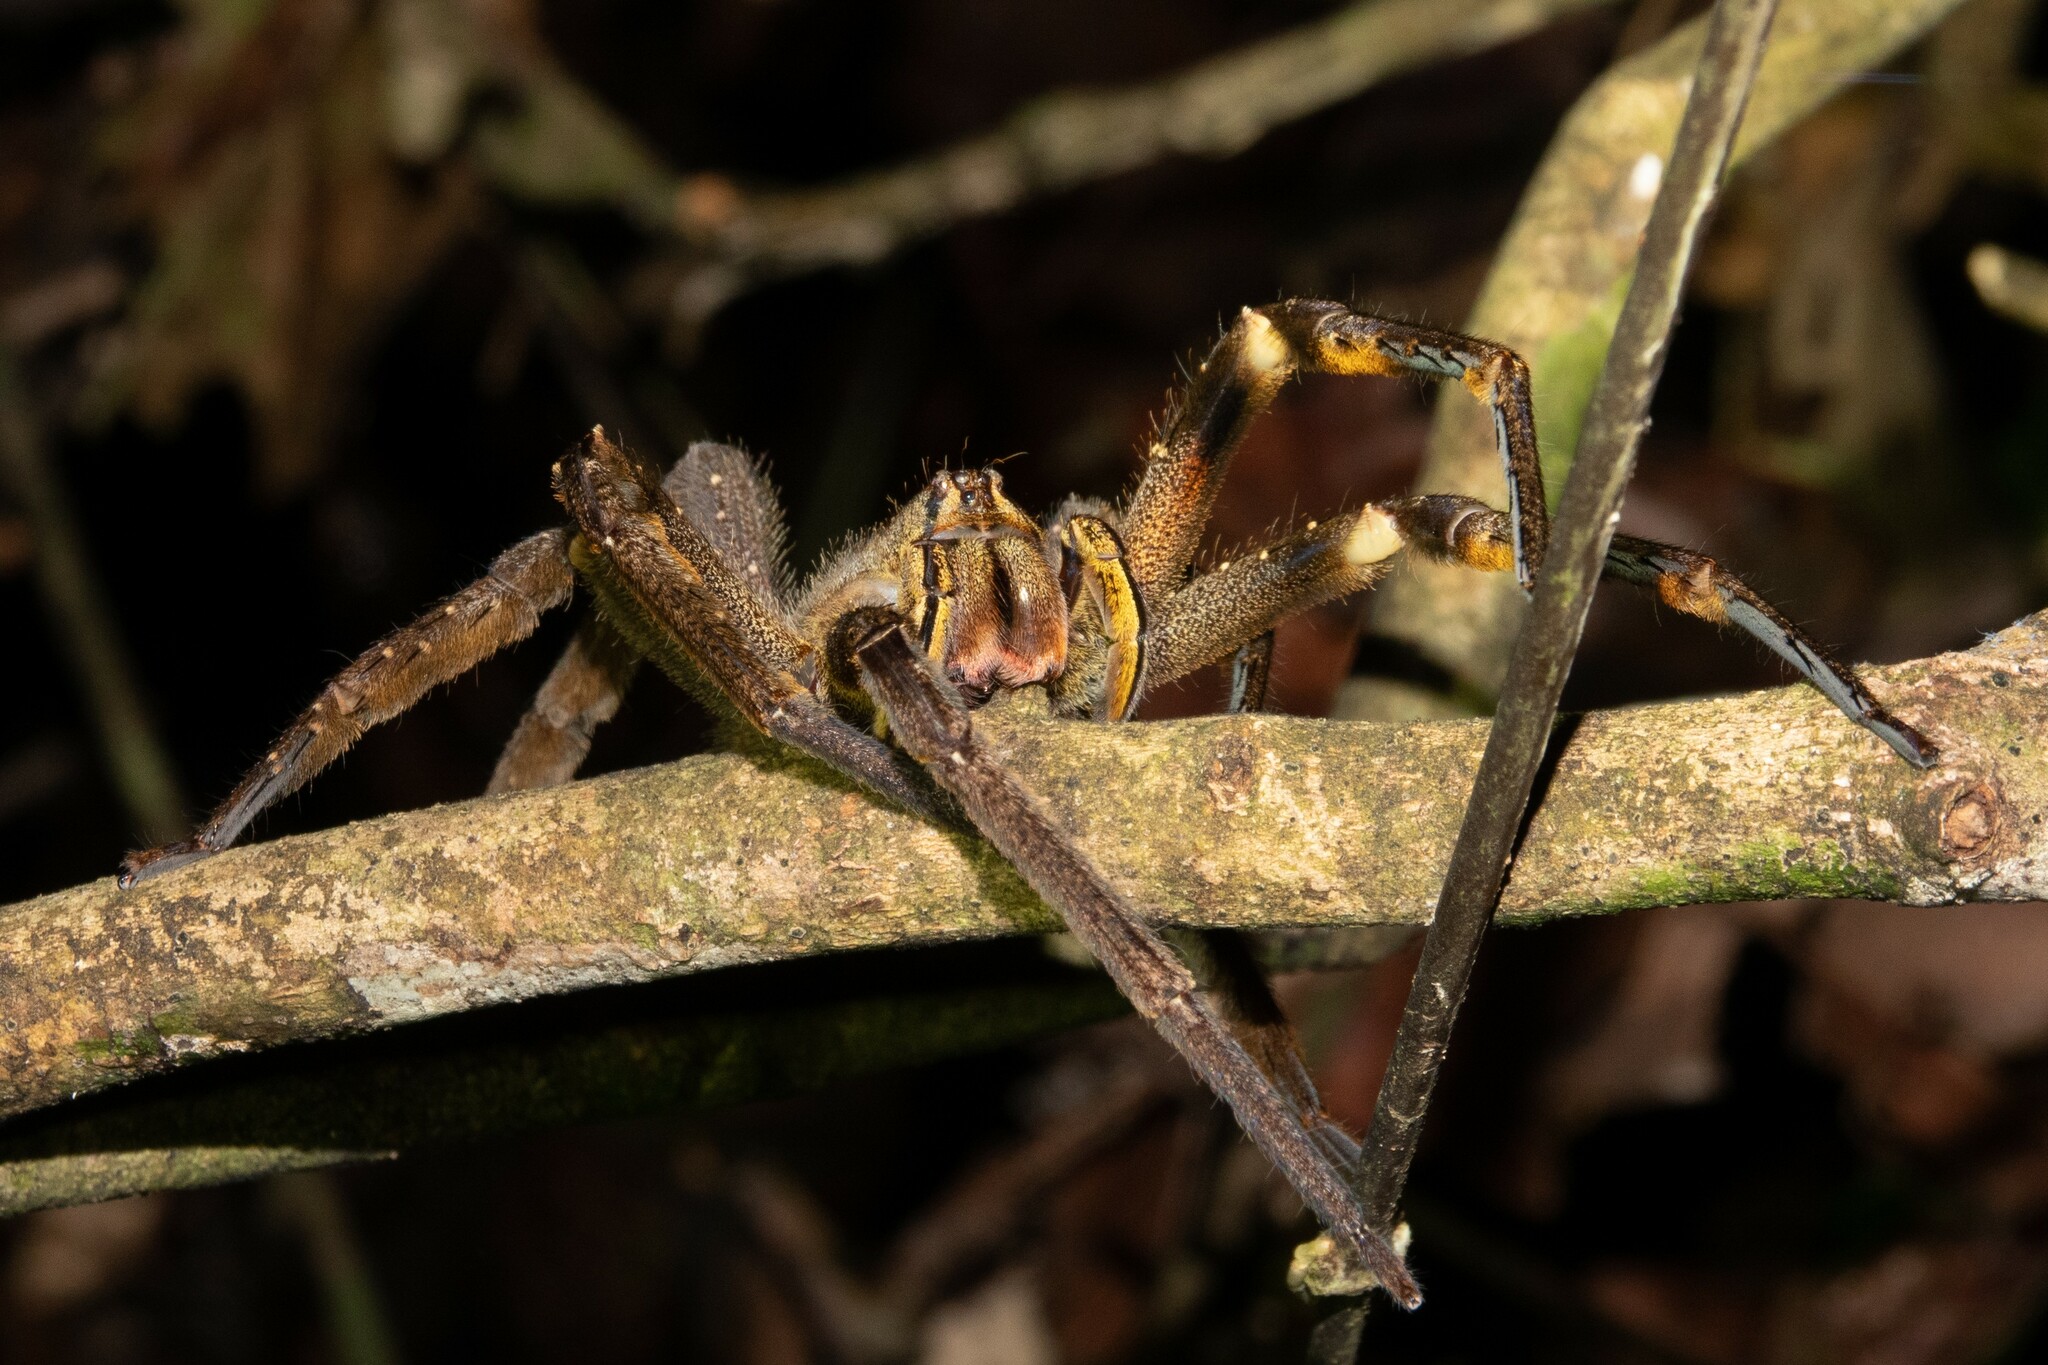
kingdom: Animalia
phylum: Arthropoda
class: Arachnida
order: Araneae
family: Ctenidae
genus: Phoneutria
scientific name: Phoneutria fera
